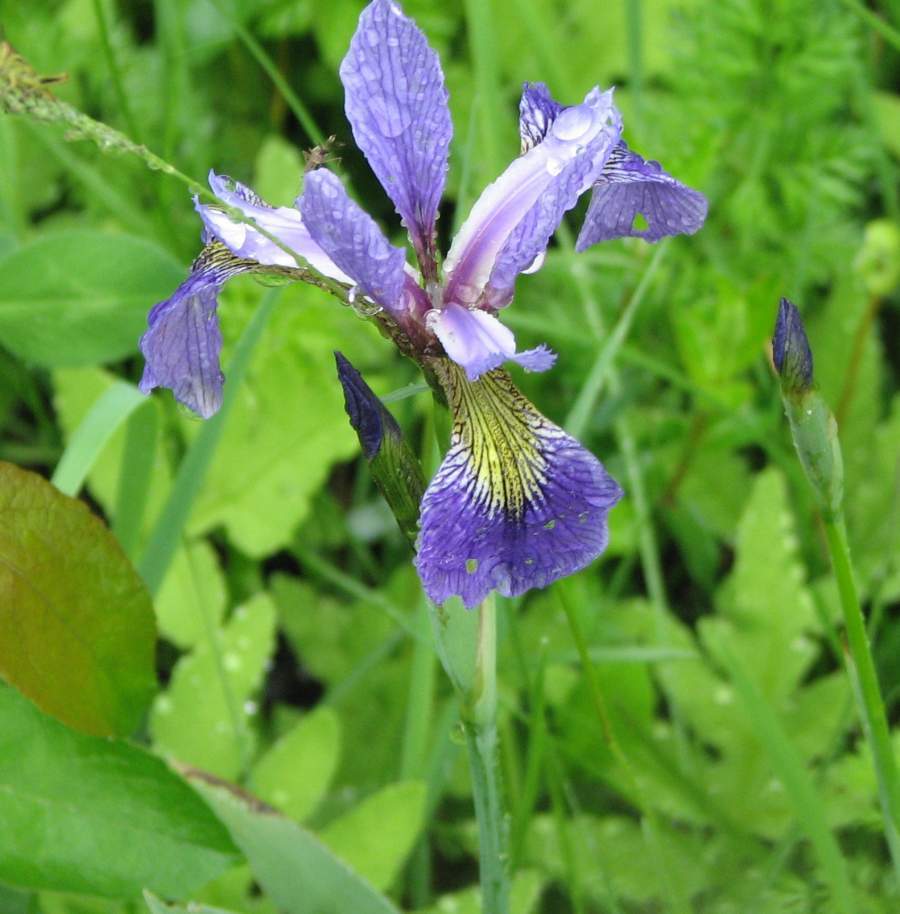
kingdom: Plantae
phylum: Tracheophyta
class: Liliopsida
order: Asparagales
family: Iridaceae
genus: Iris
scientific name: Iris versicolor
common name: Purple iris
